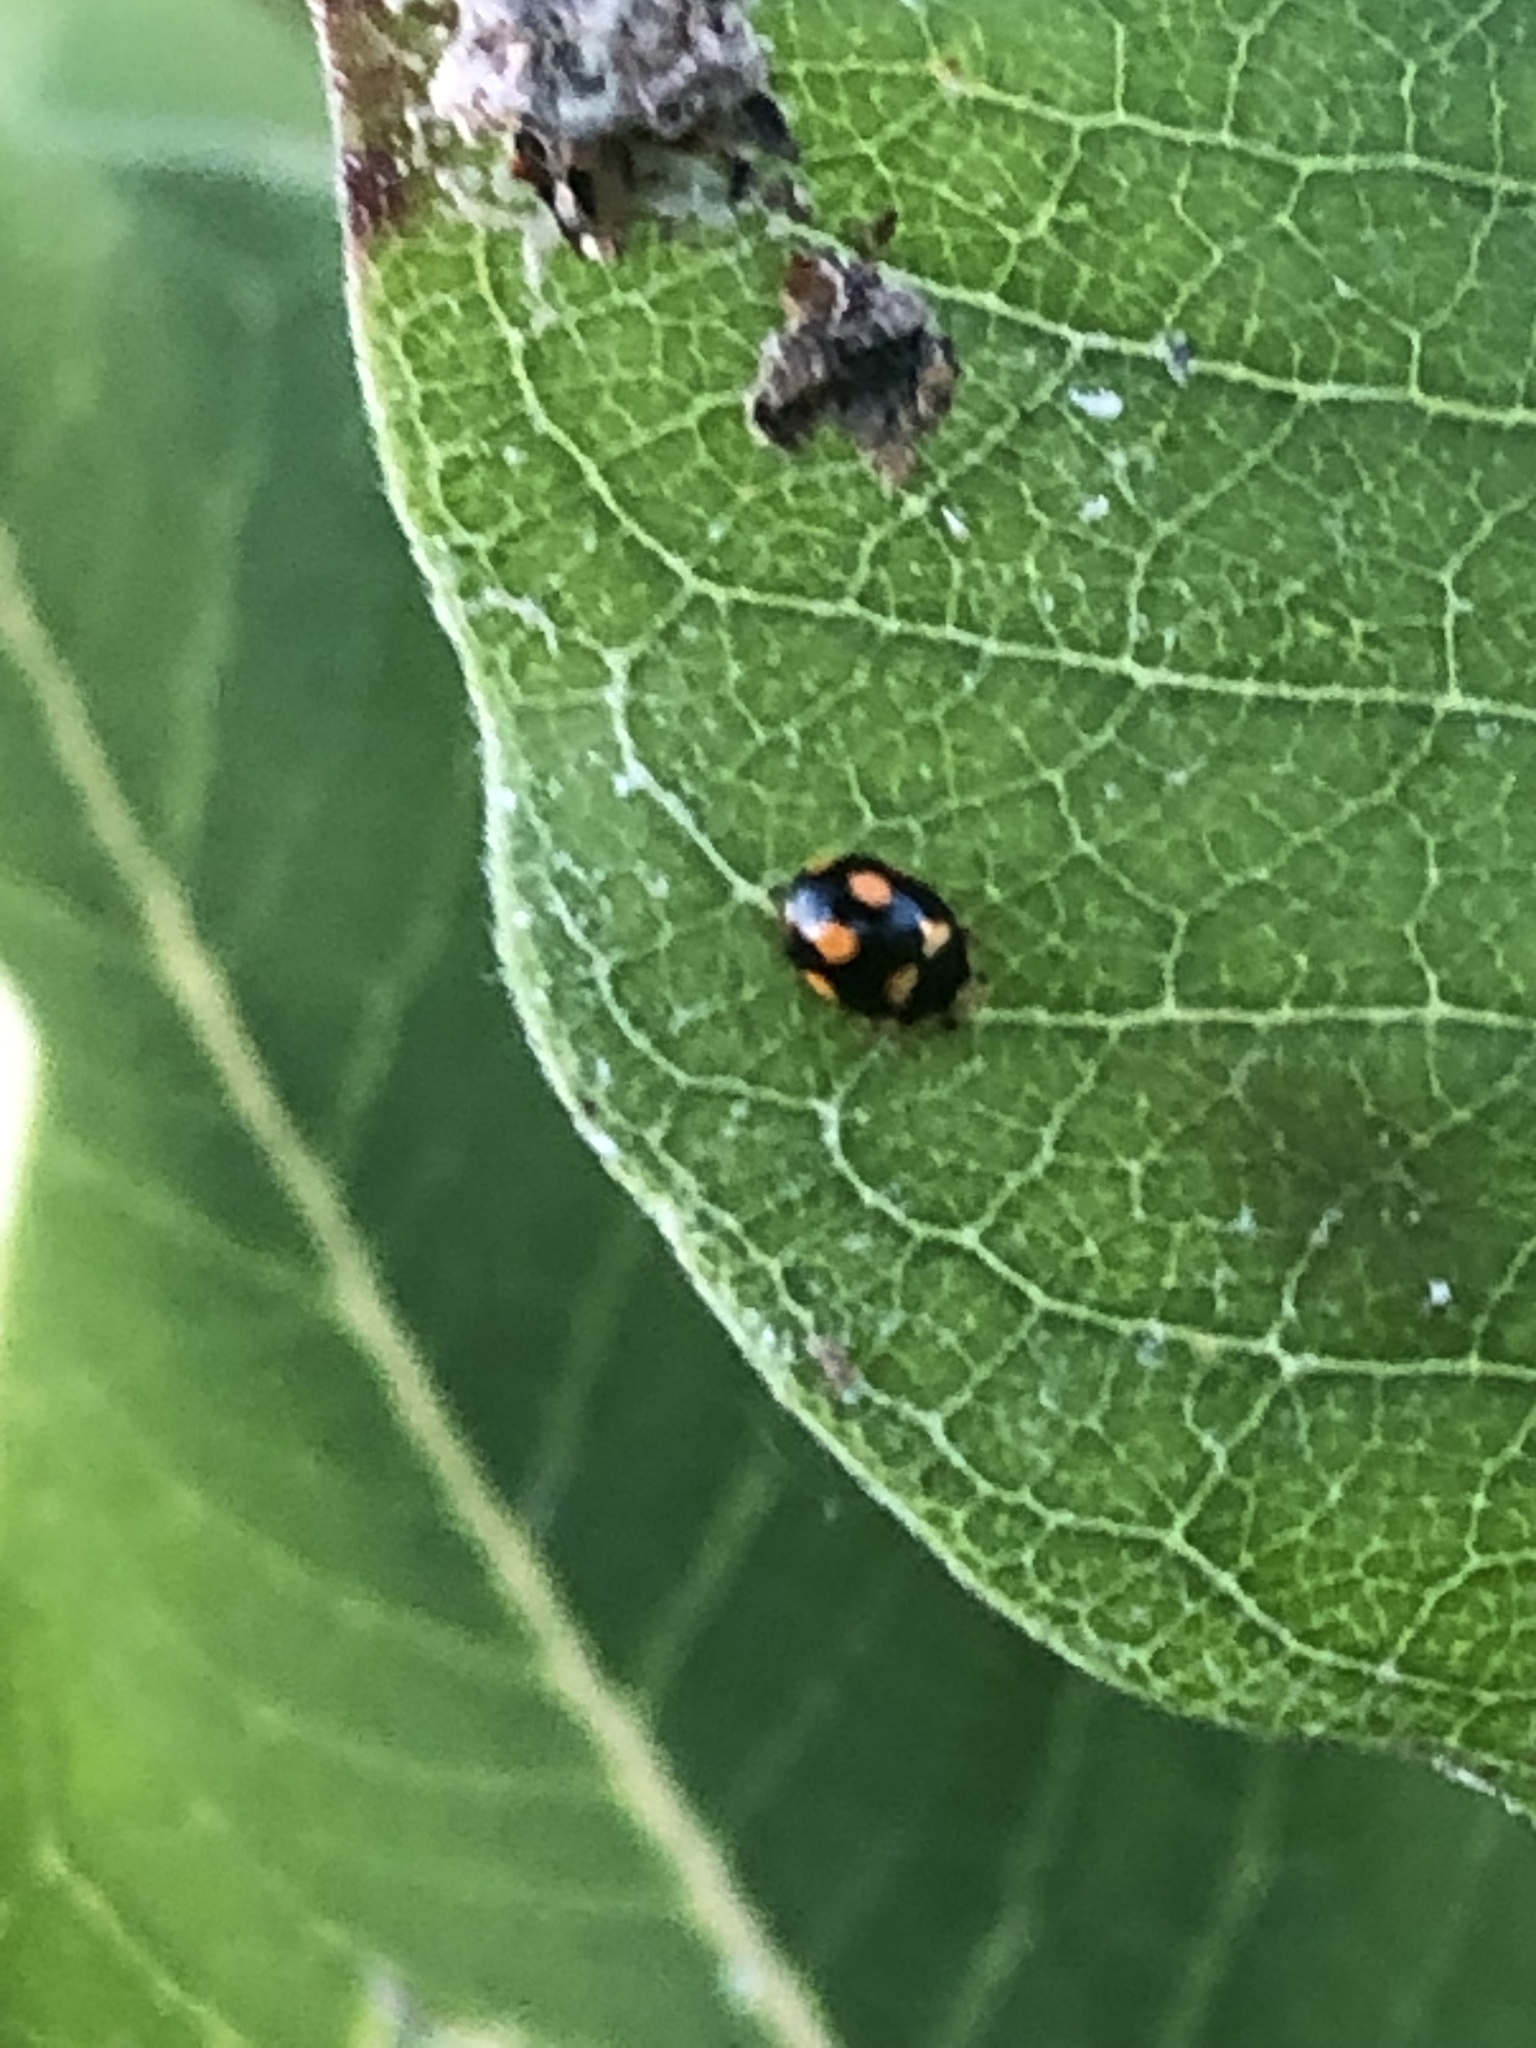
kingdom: Animalia
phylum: Arthropoda
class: Insecta
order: Coleoptera
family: Coccinellidae
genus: Brachiacantha
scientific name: Brachiacantha ursina
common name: Ursine spurleg lady beetle
